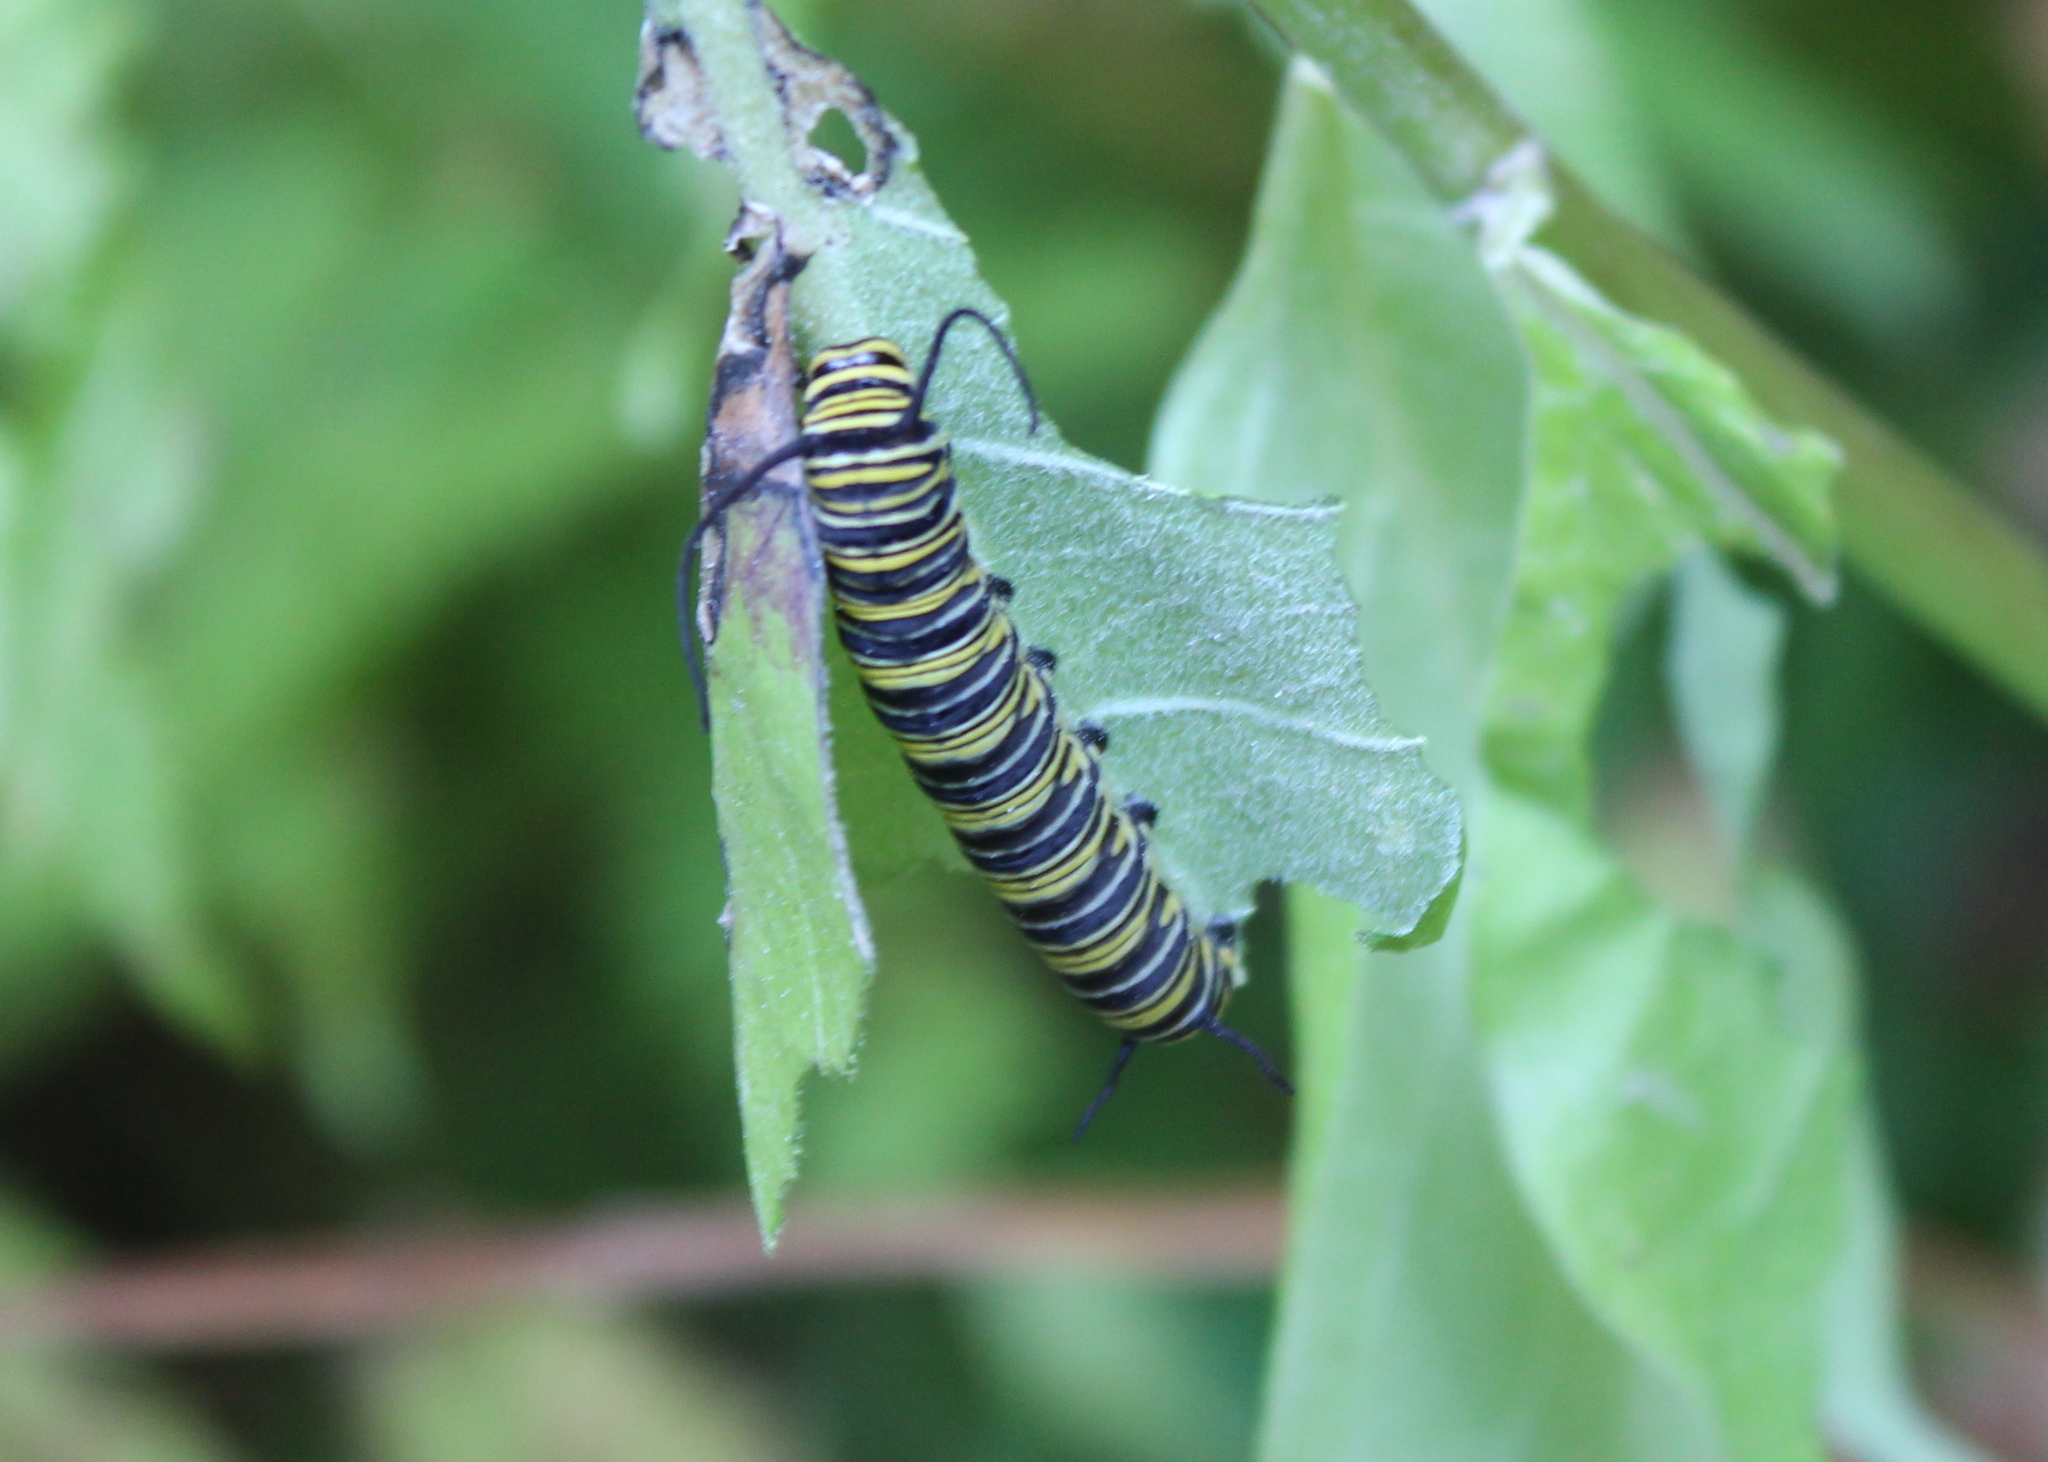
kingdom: Animalia
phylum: Arthropoda
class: Insecta
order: Lepidoptera
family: Nymphalidae
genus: Danaus
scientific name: Danaus plexippus
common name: Monarch
